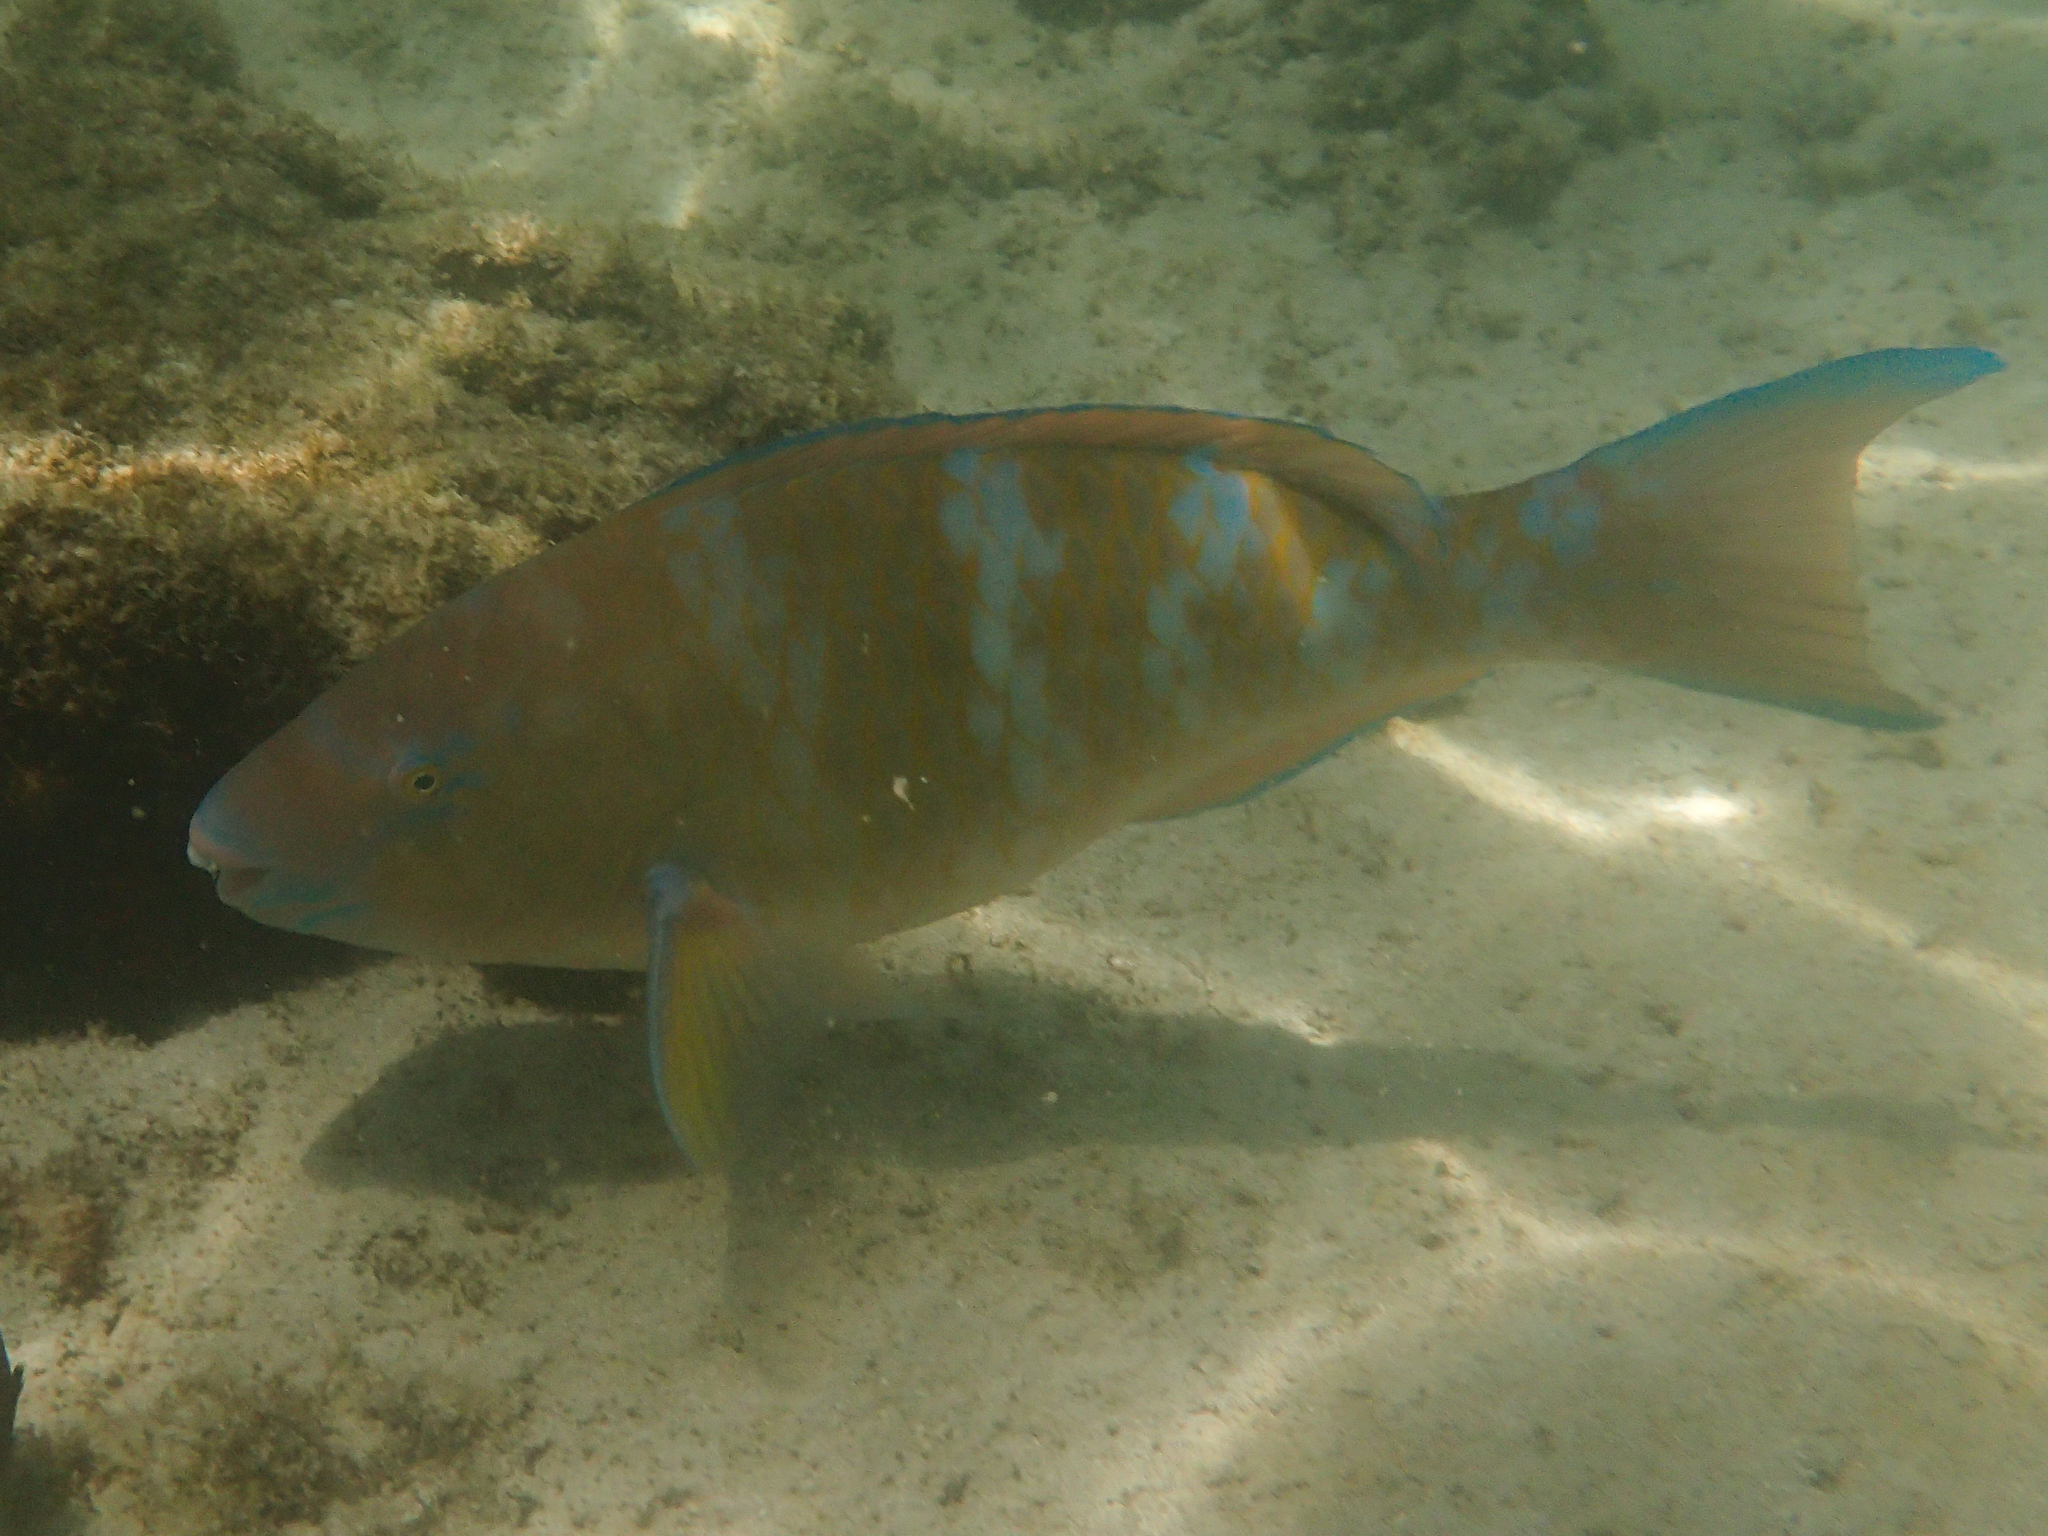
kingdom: Animalia
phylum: Chordata
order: Perciformes
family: Scaridae
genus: Scarus
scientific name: Scarus ghobban
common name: Blue-barred parrotfish
